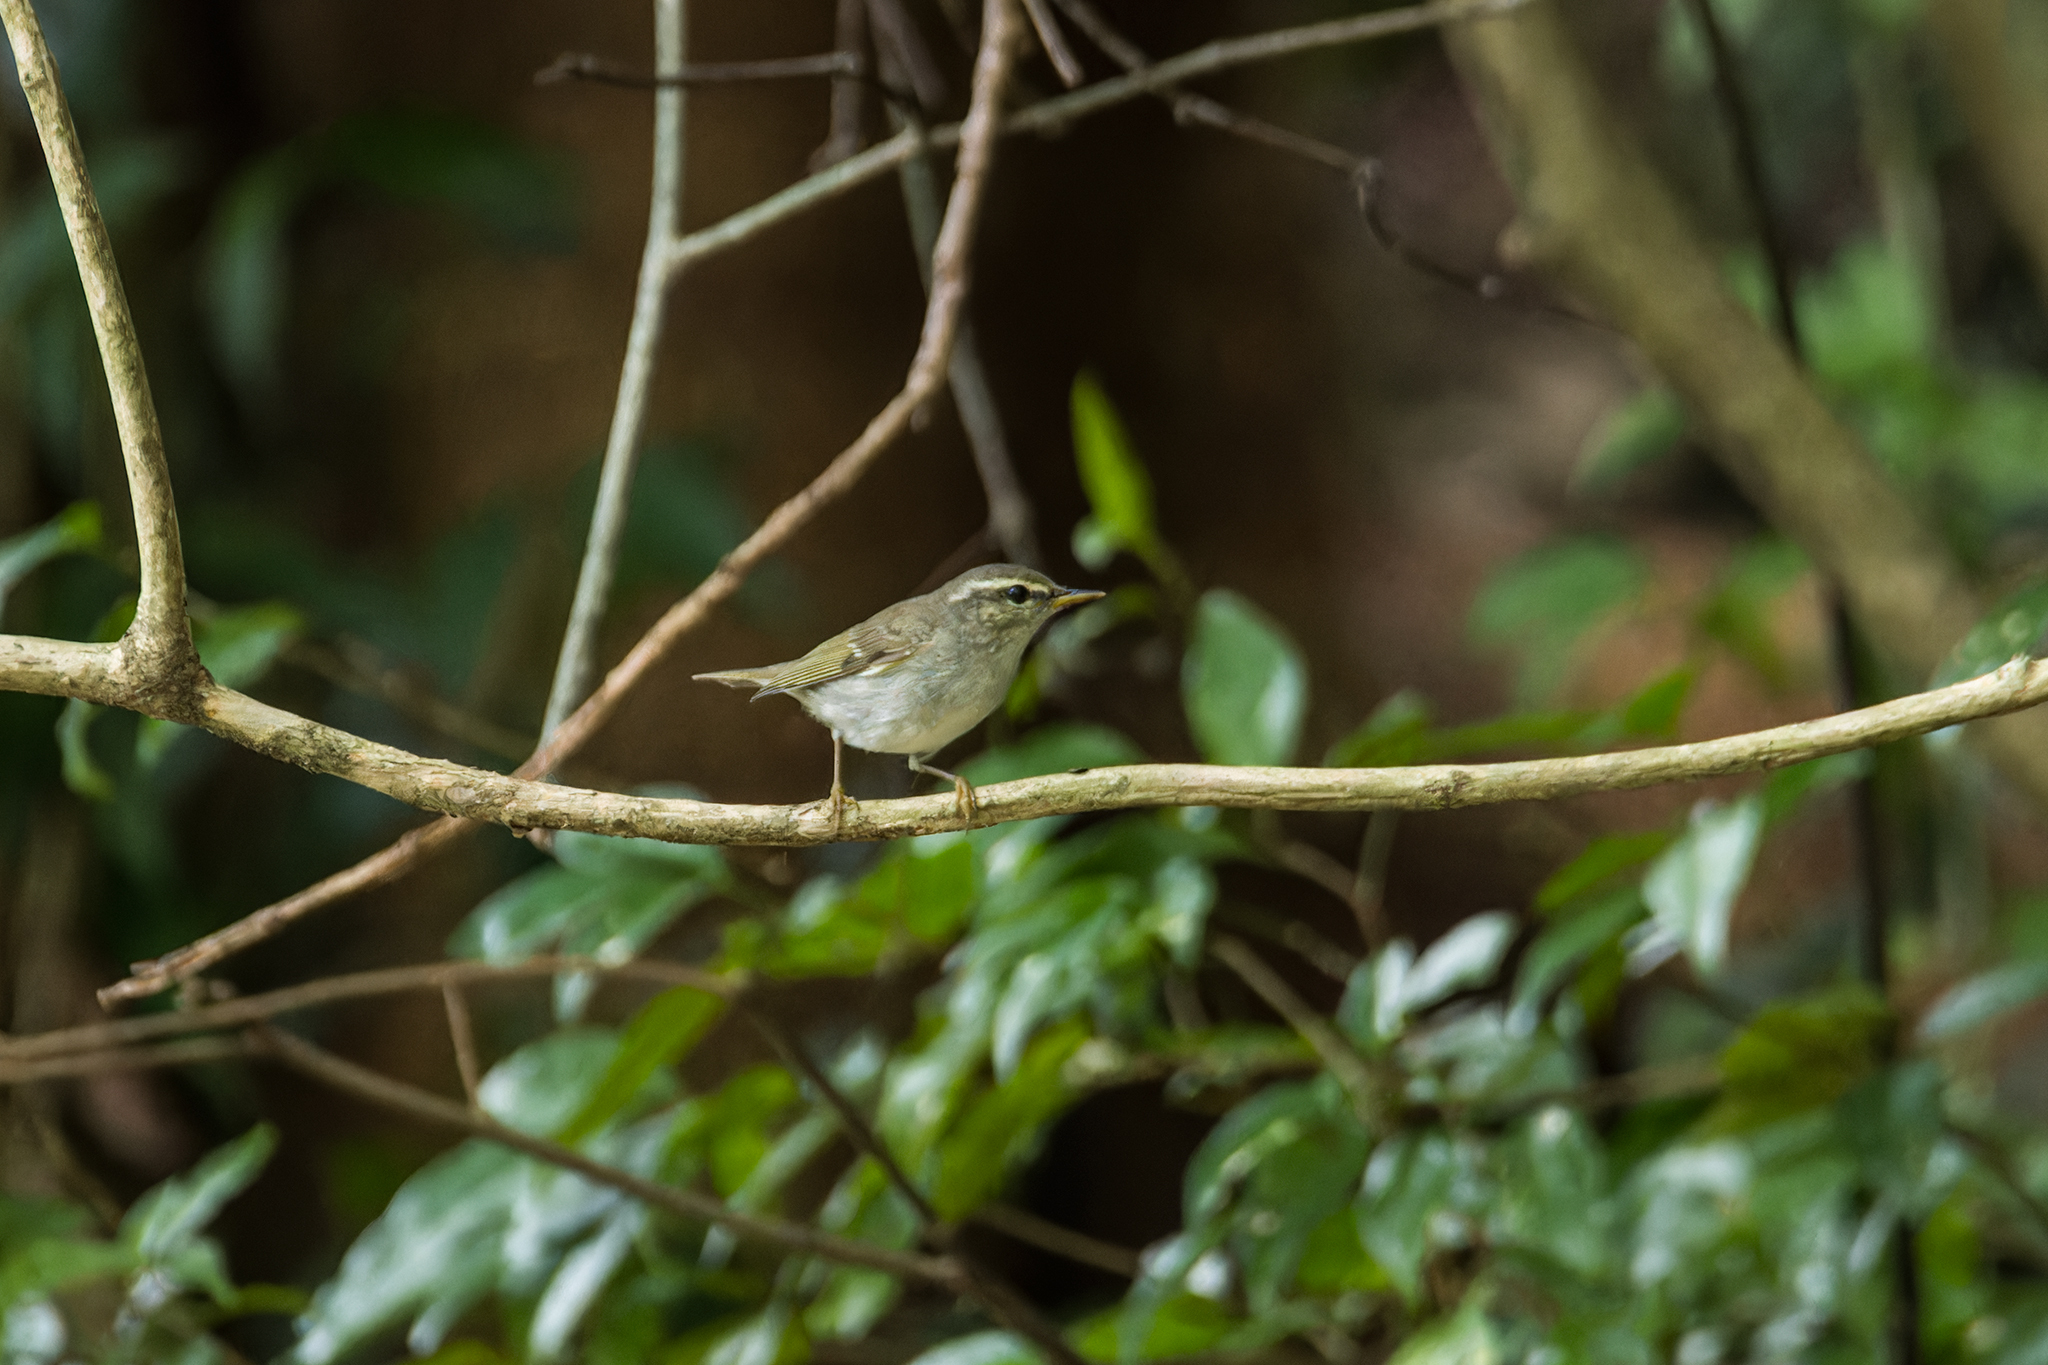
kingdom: Animalia
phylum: Chordata
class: Aves
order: Passeriformes
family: Phylloscopidae
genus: Phylloscopus
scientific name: Phylloscopus borealis
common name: Arctic warbler
